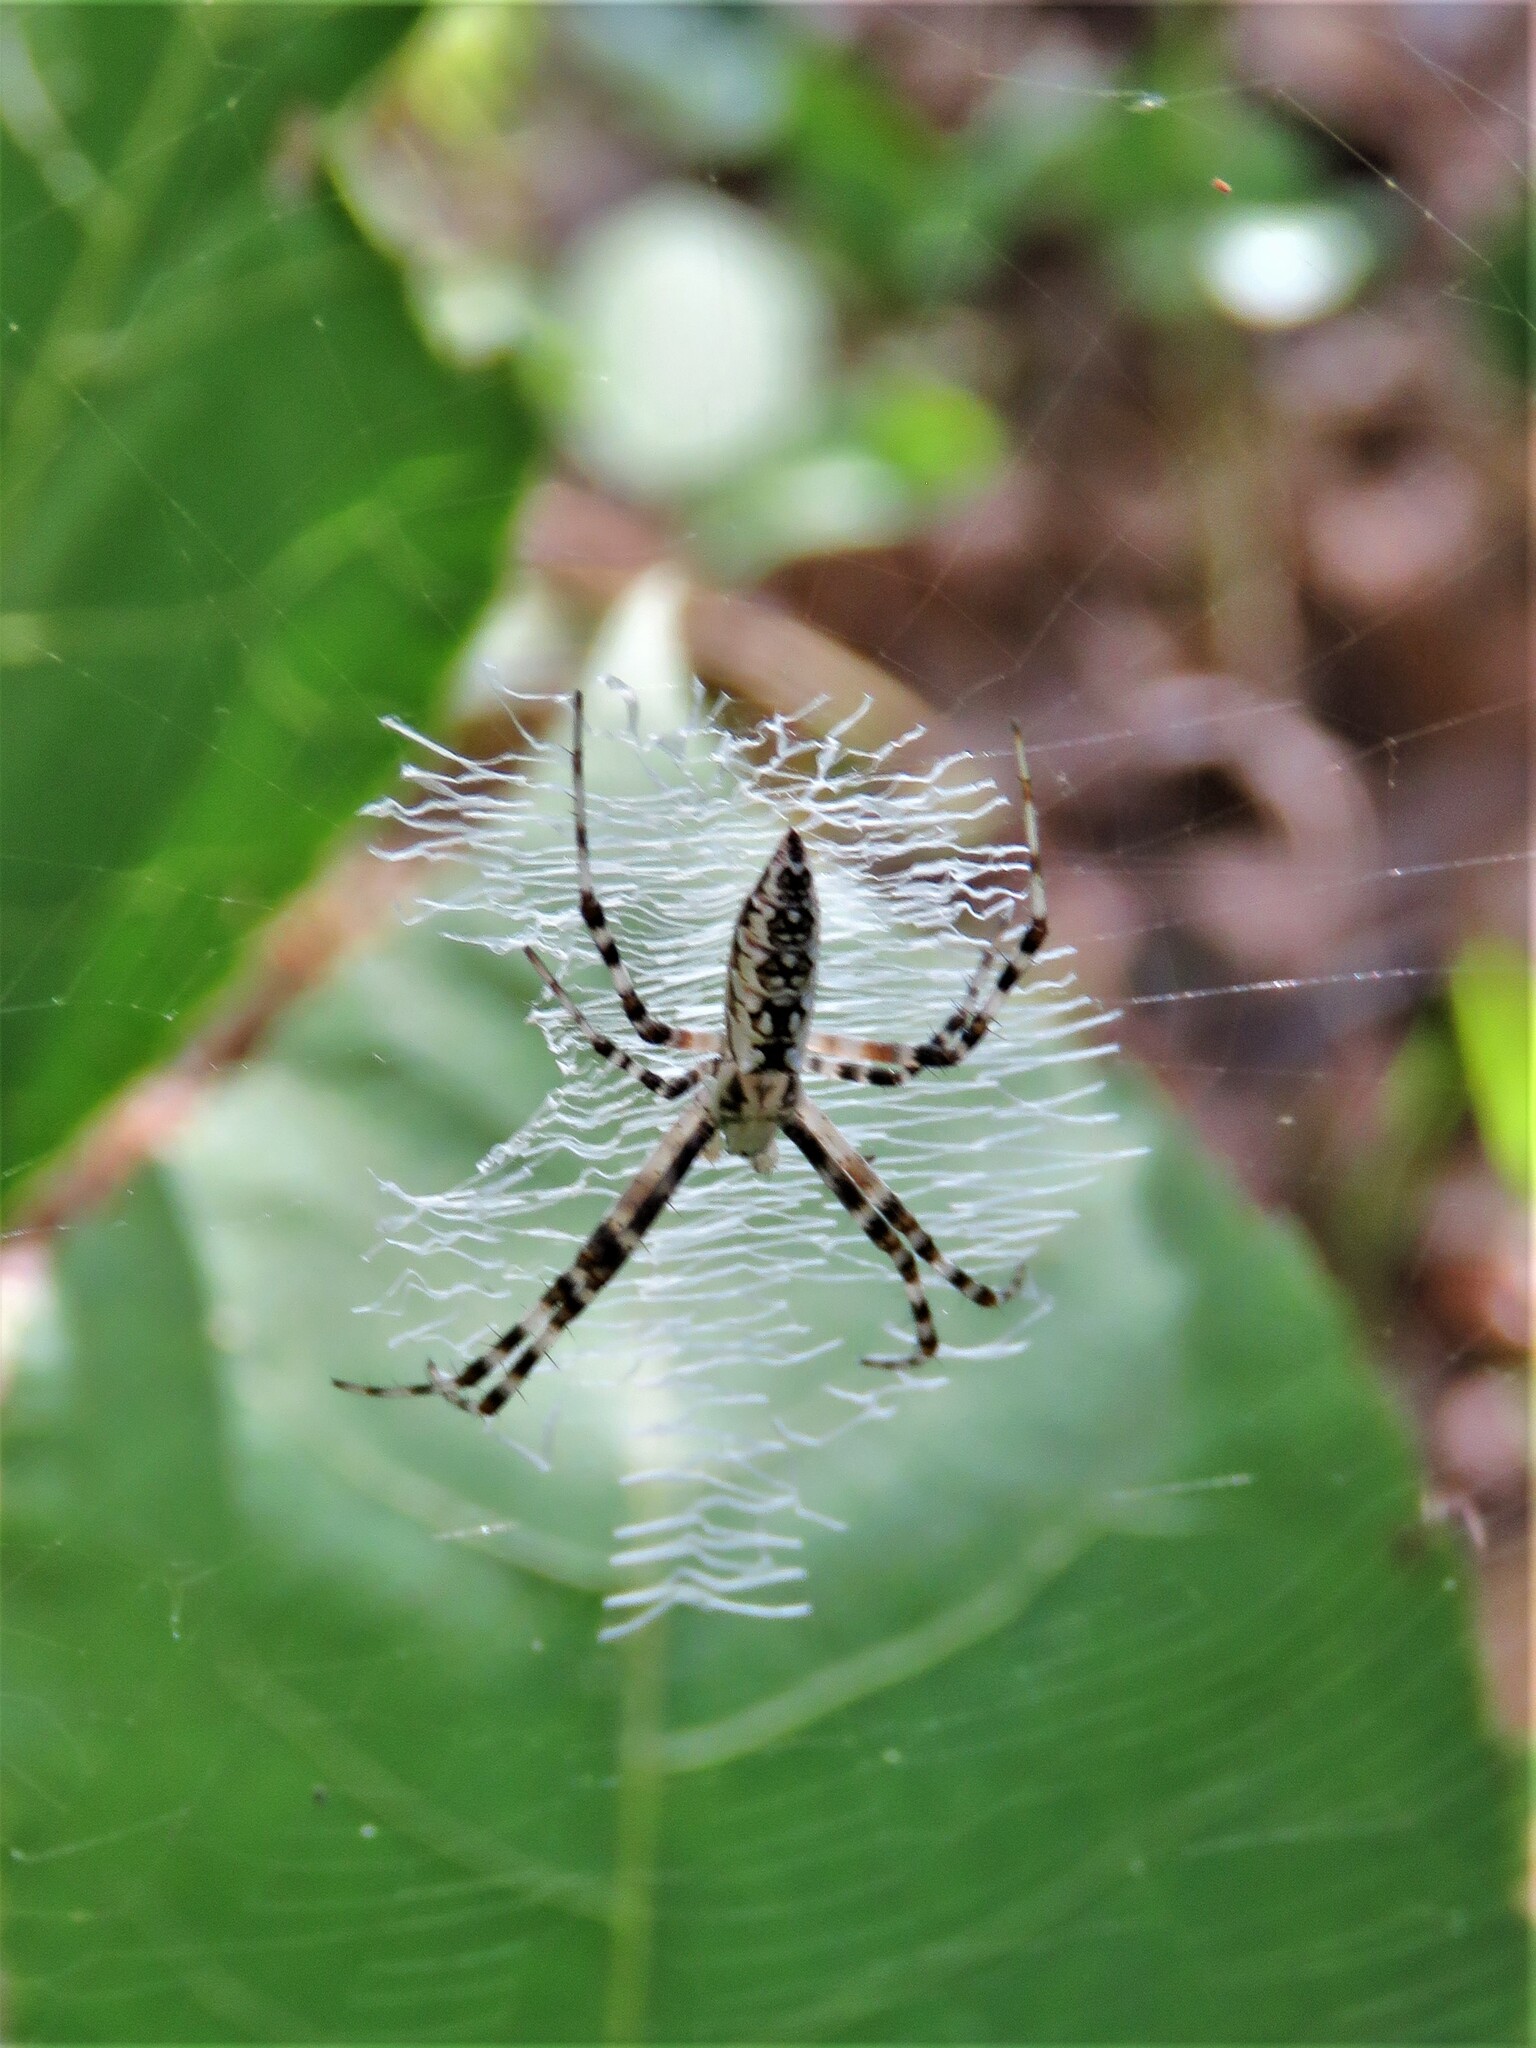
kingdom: Animalia
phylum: Arthropoda
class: Arachnida
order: Araneae
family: Araneidae
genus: Argiope
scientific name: Argiope aurantia
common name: Orb weavers
